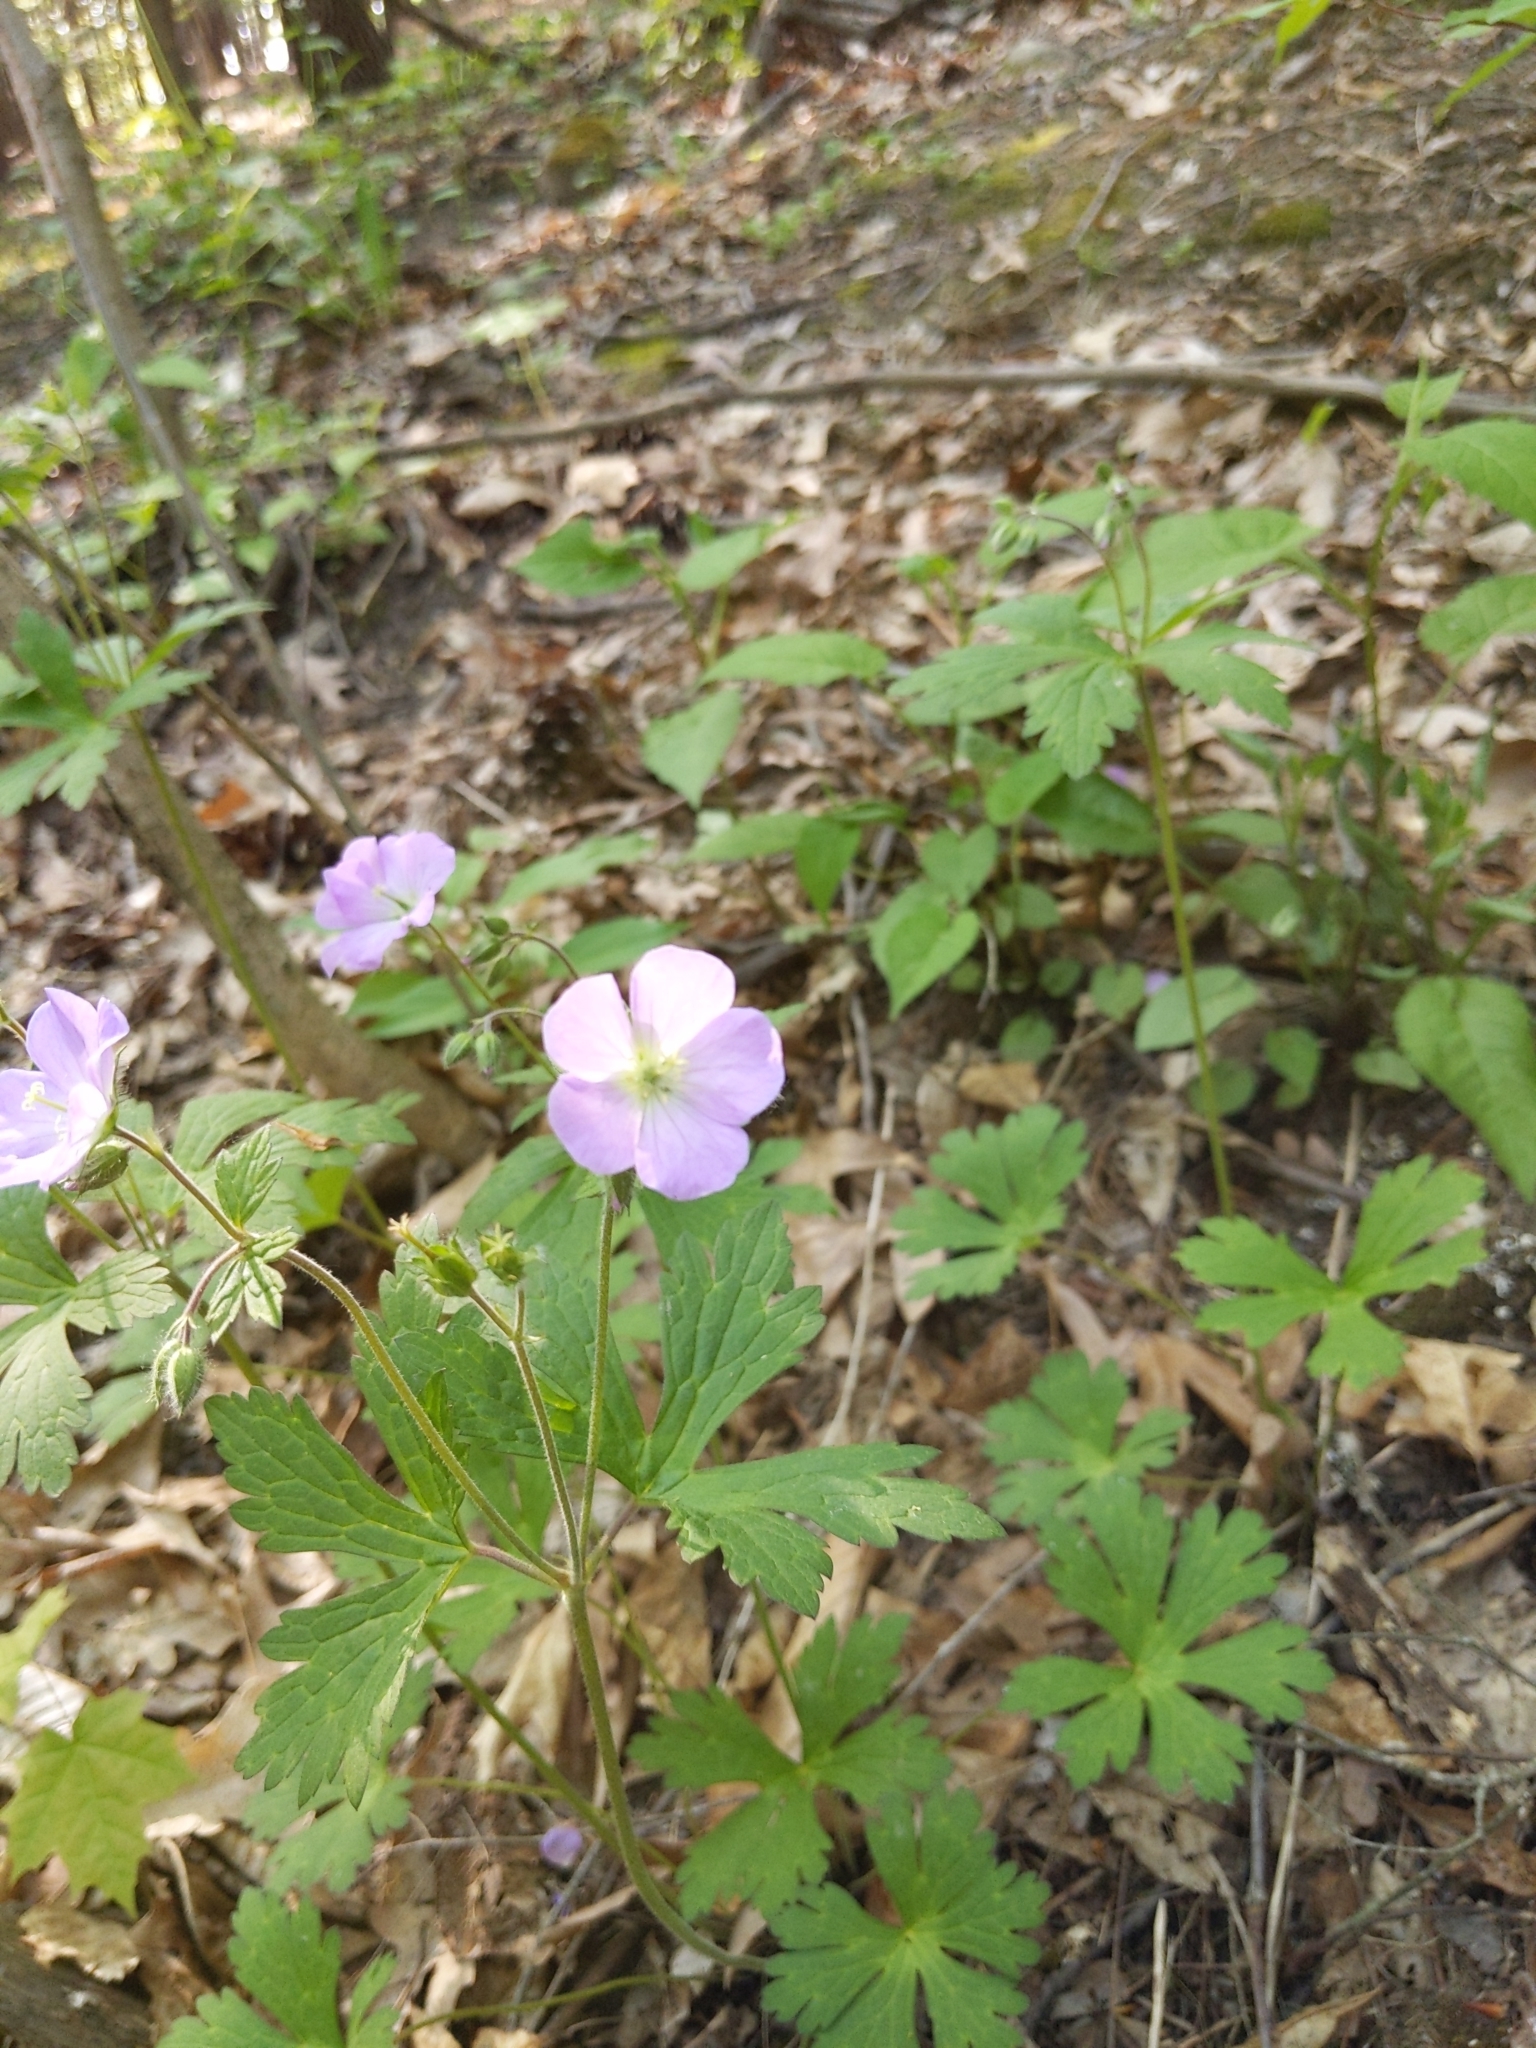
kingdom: Plantae
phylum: Tracheophyta
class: Magnoliopsida
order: Geraniales
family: Geraniaceae
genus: Geranium
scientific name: Geranium maculatum
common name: Spotted geranium
